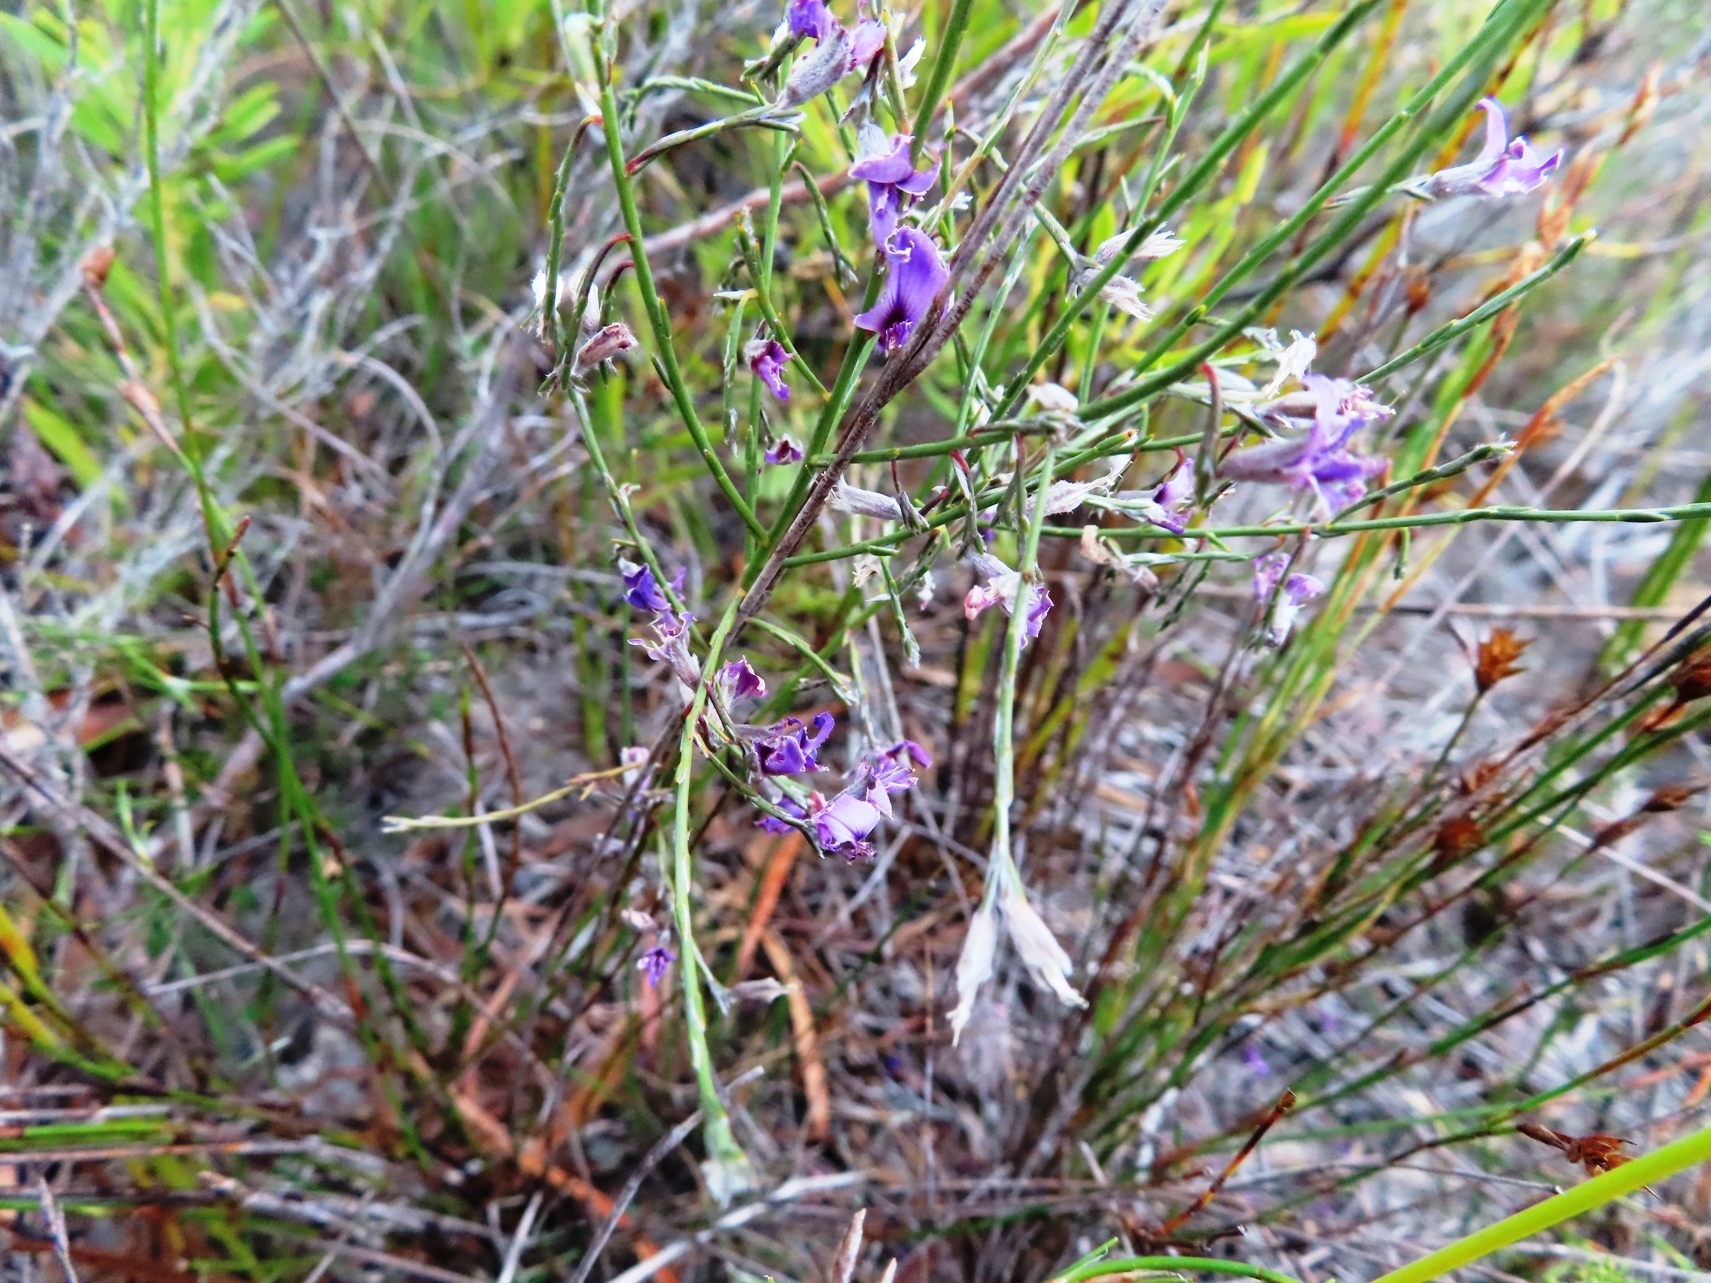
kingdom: Plantae
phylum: Tracheophyta
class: Magnoliopsida
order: Fabales
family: Fabaceae
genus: Amphithalea
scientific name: Amphithalea biovulata
